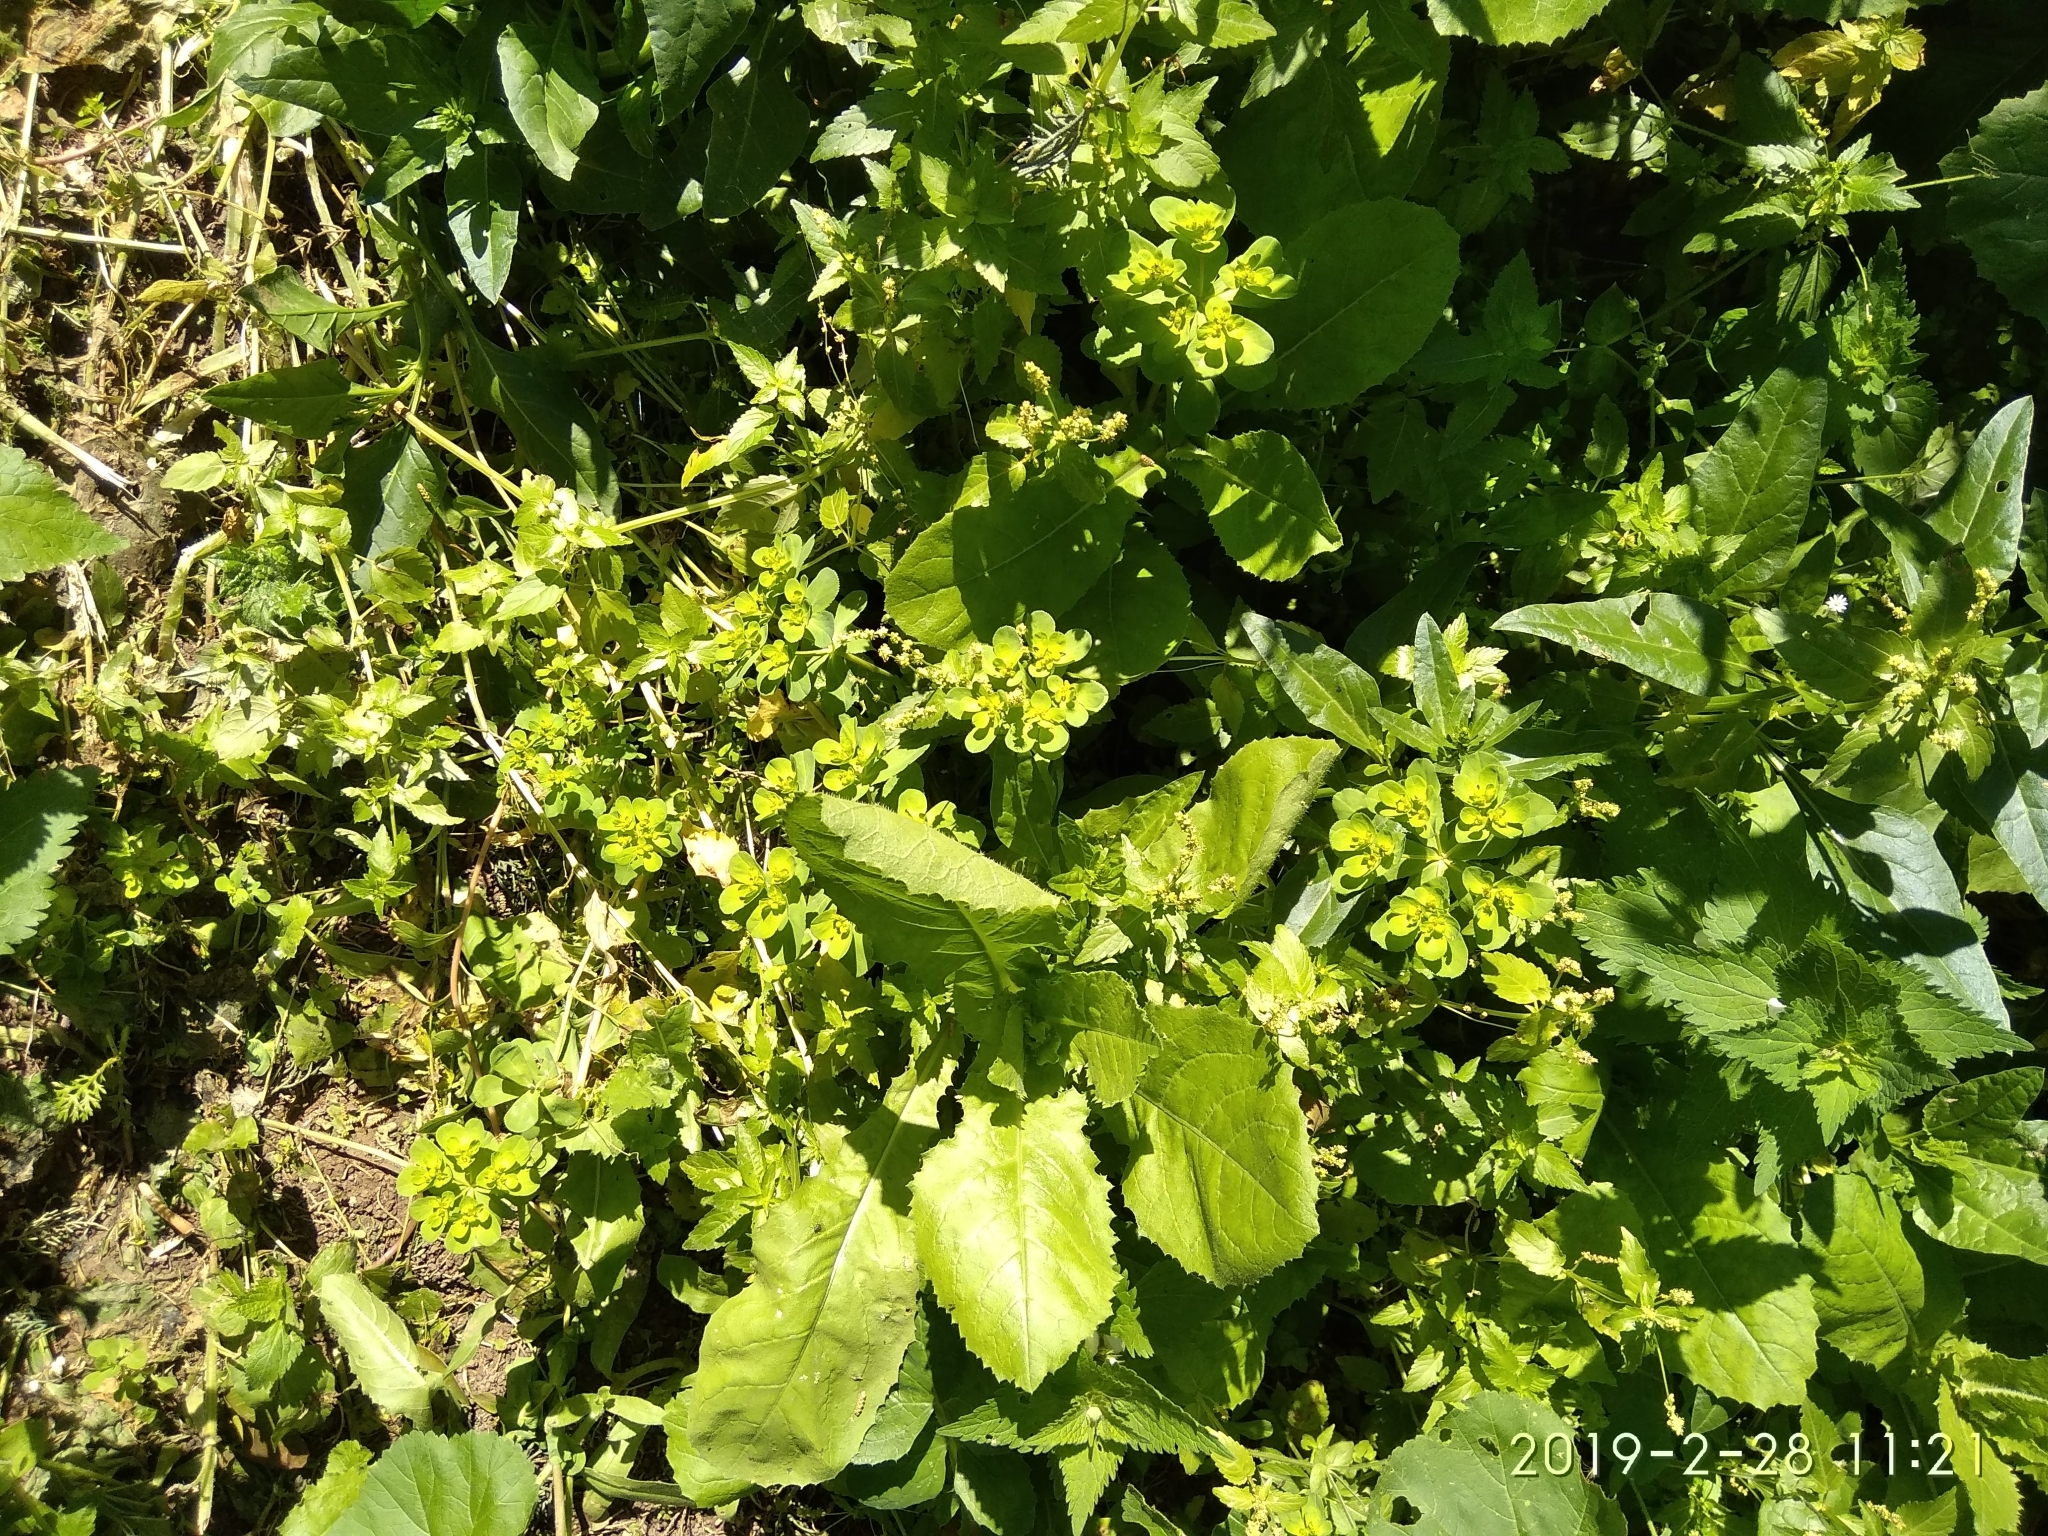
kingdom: Plantae
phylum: Tracheophyta
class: Magnoliopsida
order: Malpighiales
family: Euphorbiaceae
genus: Euphorbia
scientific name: Euphorbia helioscopia
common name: Sun spurge
